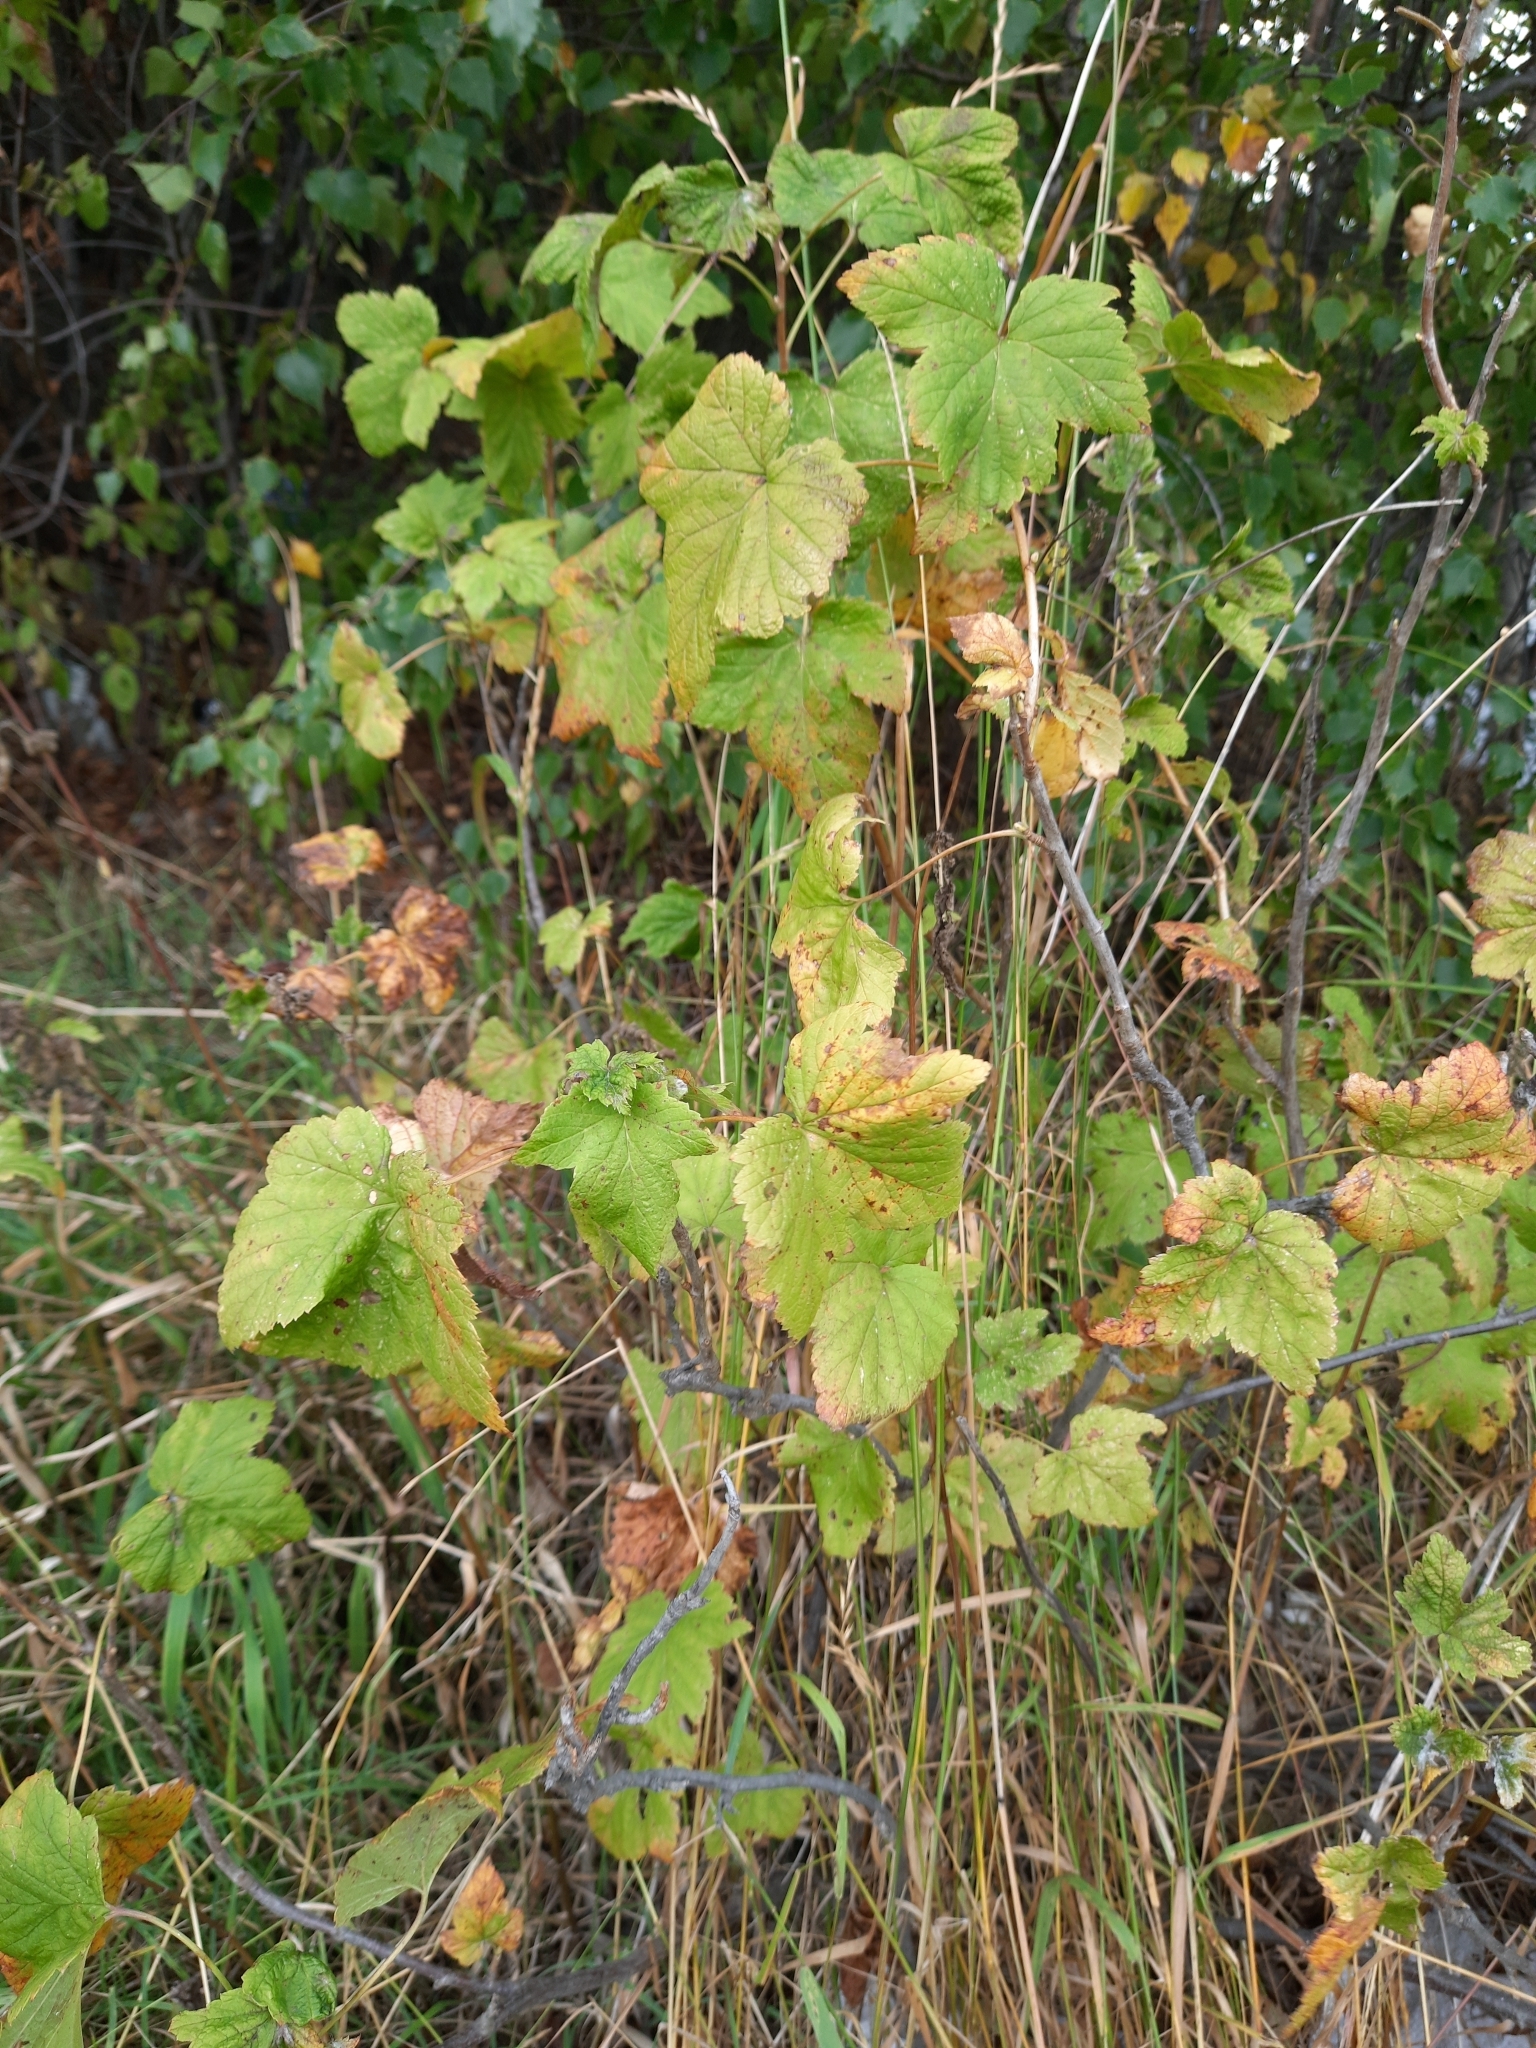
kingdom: Plantae
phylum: Tracheophyta
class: Magnoliopsida
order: Saxifragales
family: Grossulariaceae
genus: Ribes
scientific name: Ribes nigrum
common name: Black currant
